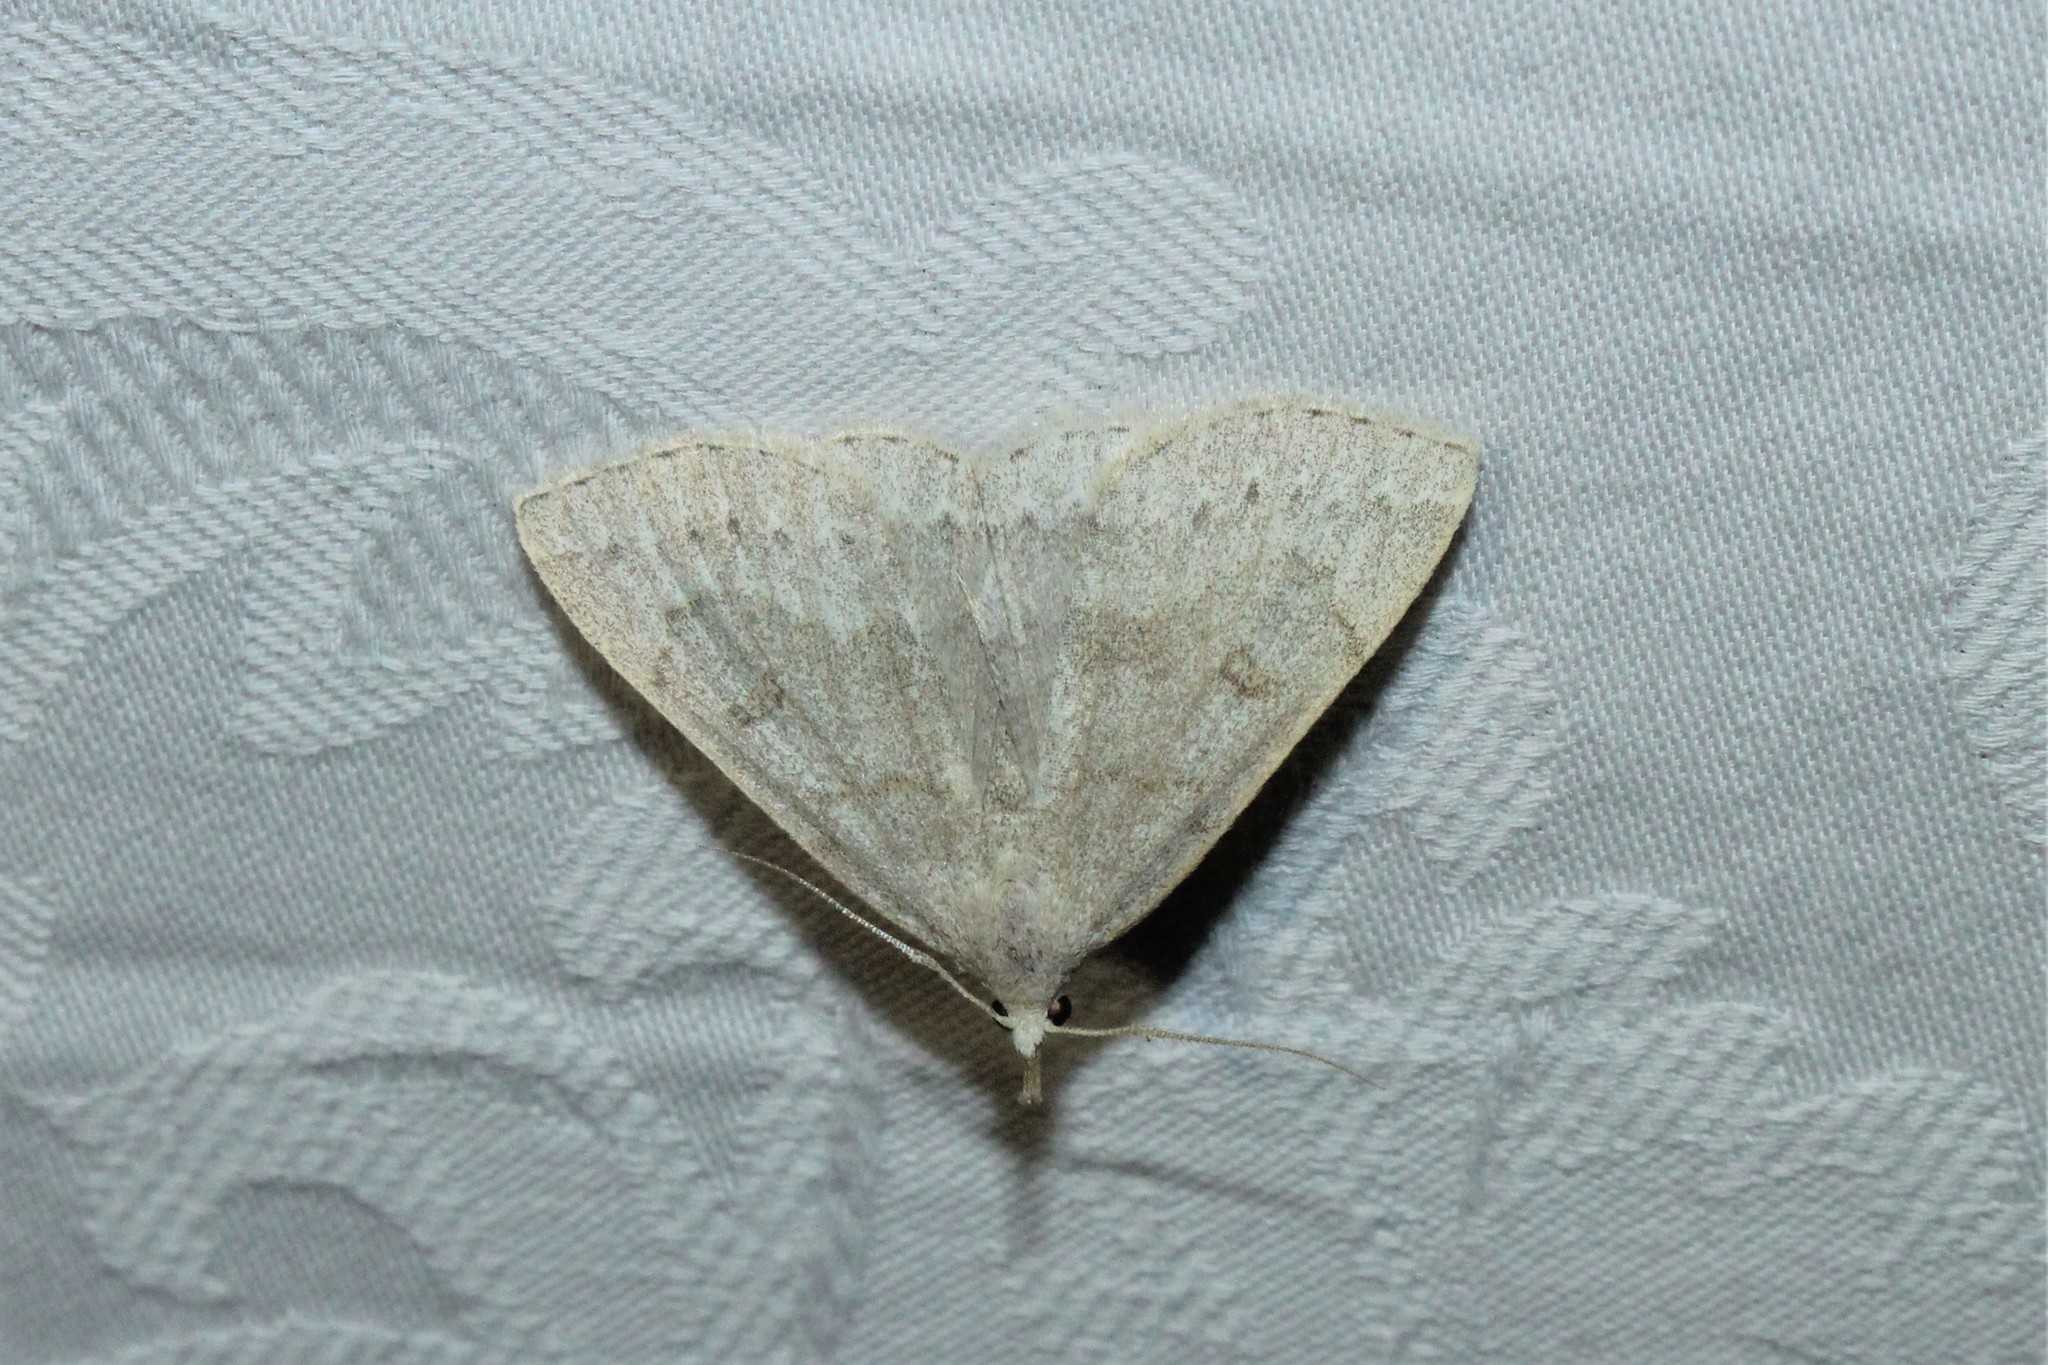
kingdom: Animalia
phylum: Arthropoda
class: Insecta
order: Lepidoptera
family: Erebidae
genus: Macrochilo
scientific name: Macrochilo morbidalis
